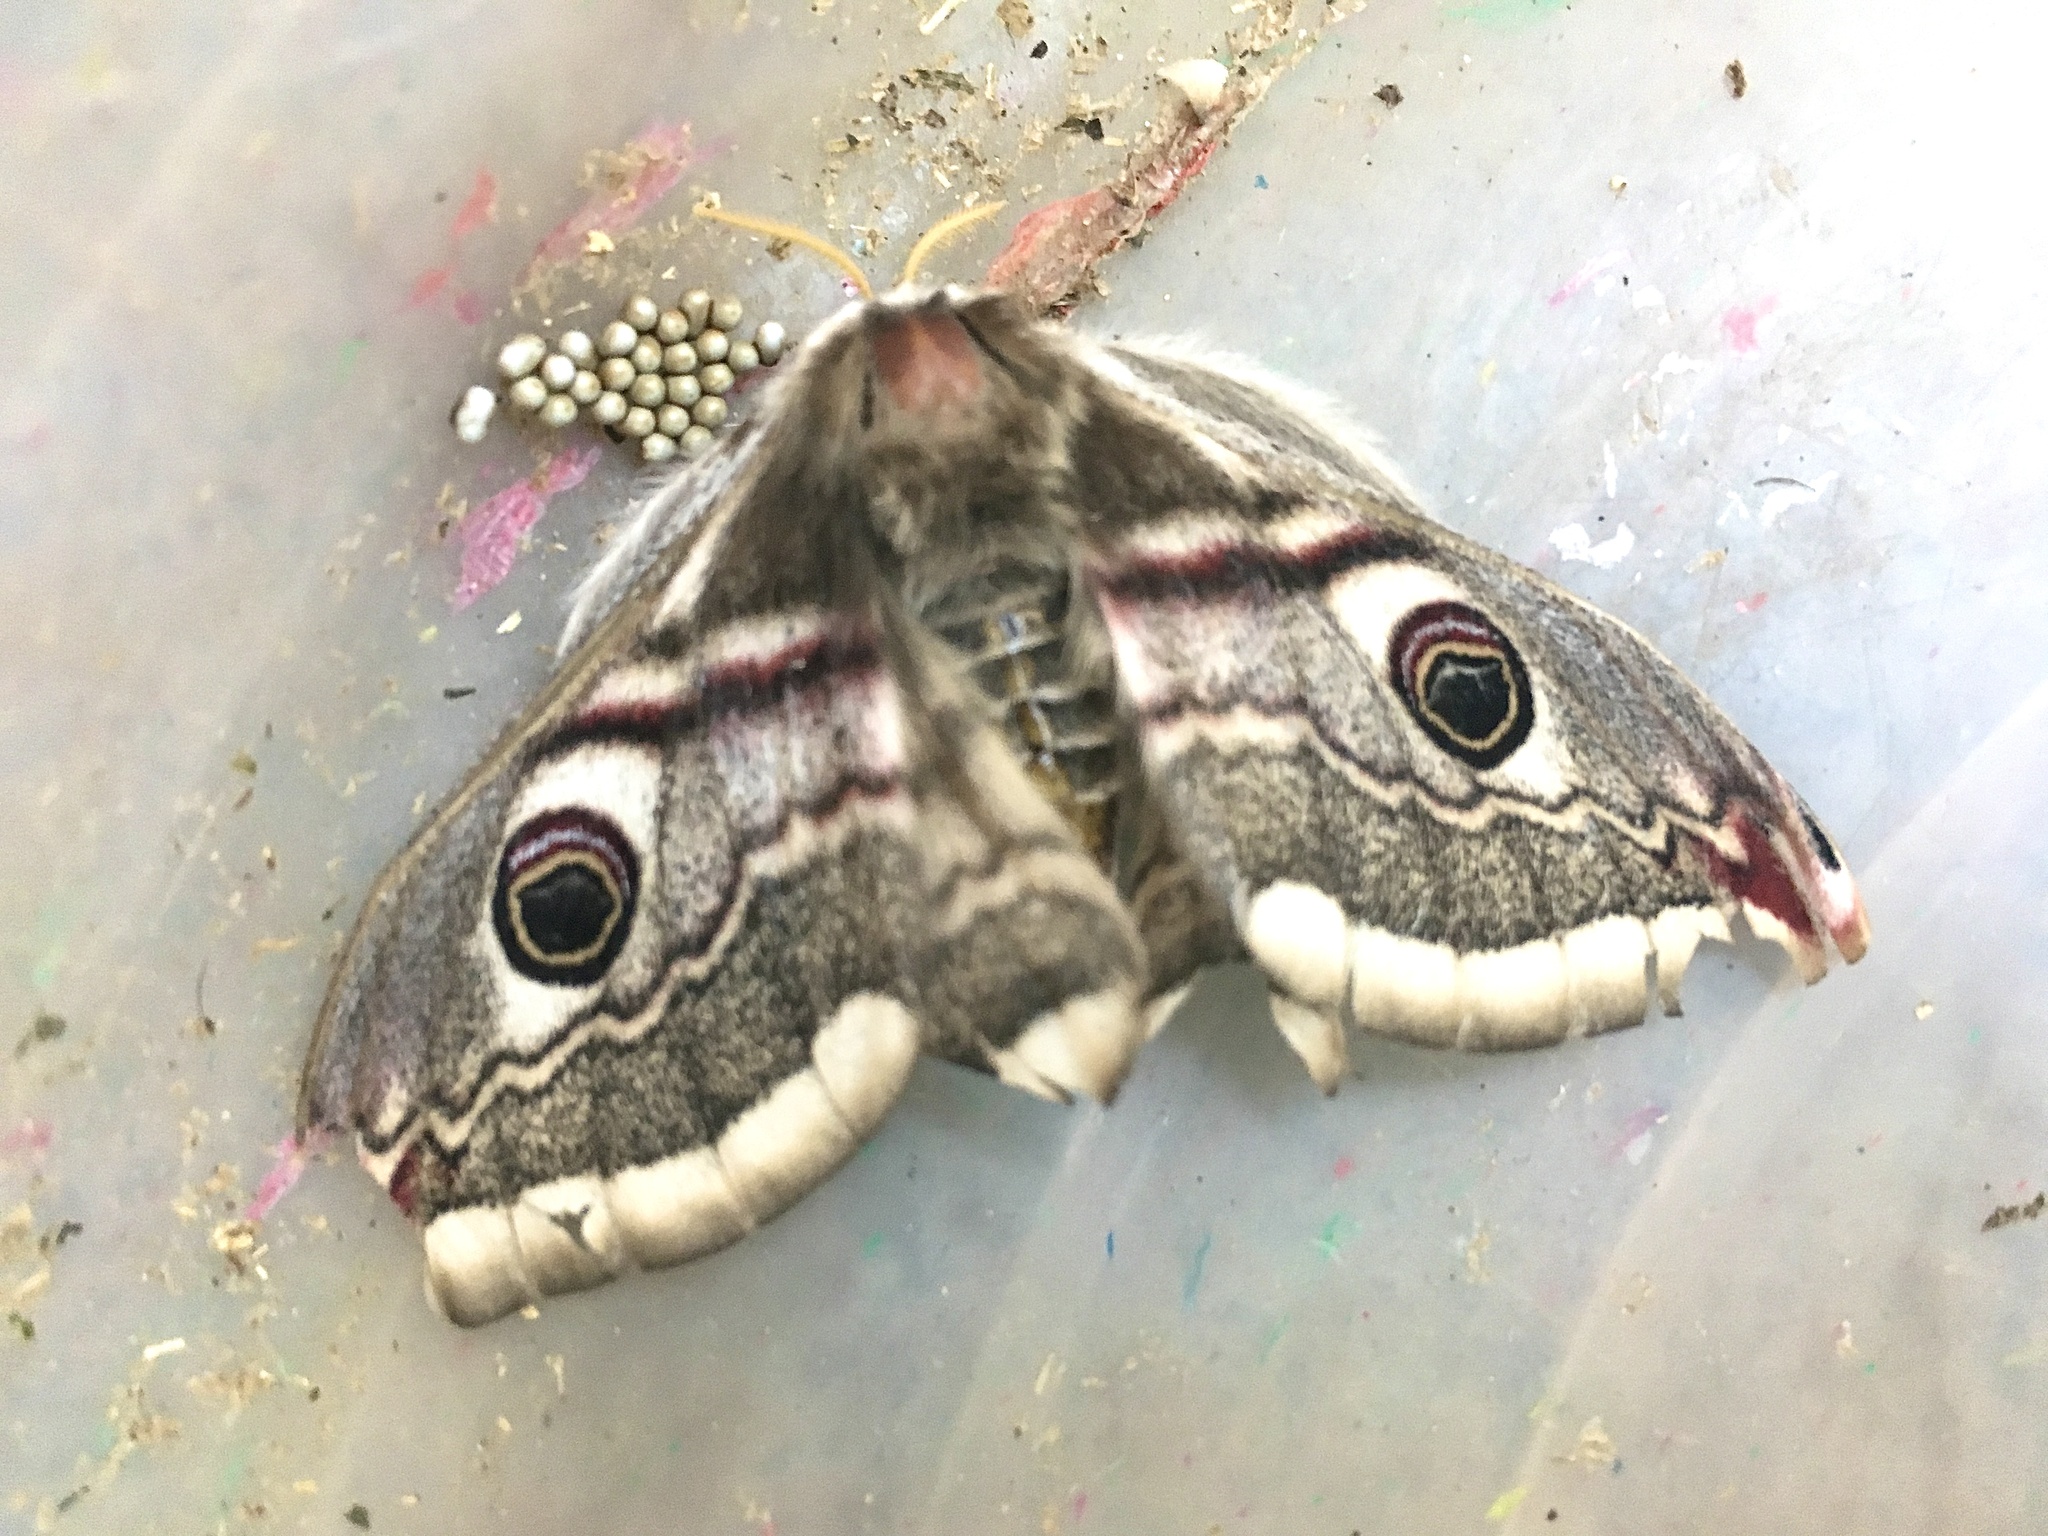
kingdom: Animalia
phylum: Arthropoda
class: Insecta
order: Lepidoptera
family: Saturniidae
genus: Saturnia
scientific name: Saturnia pavonia
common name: Emperor moth
